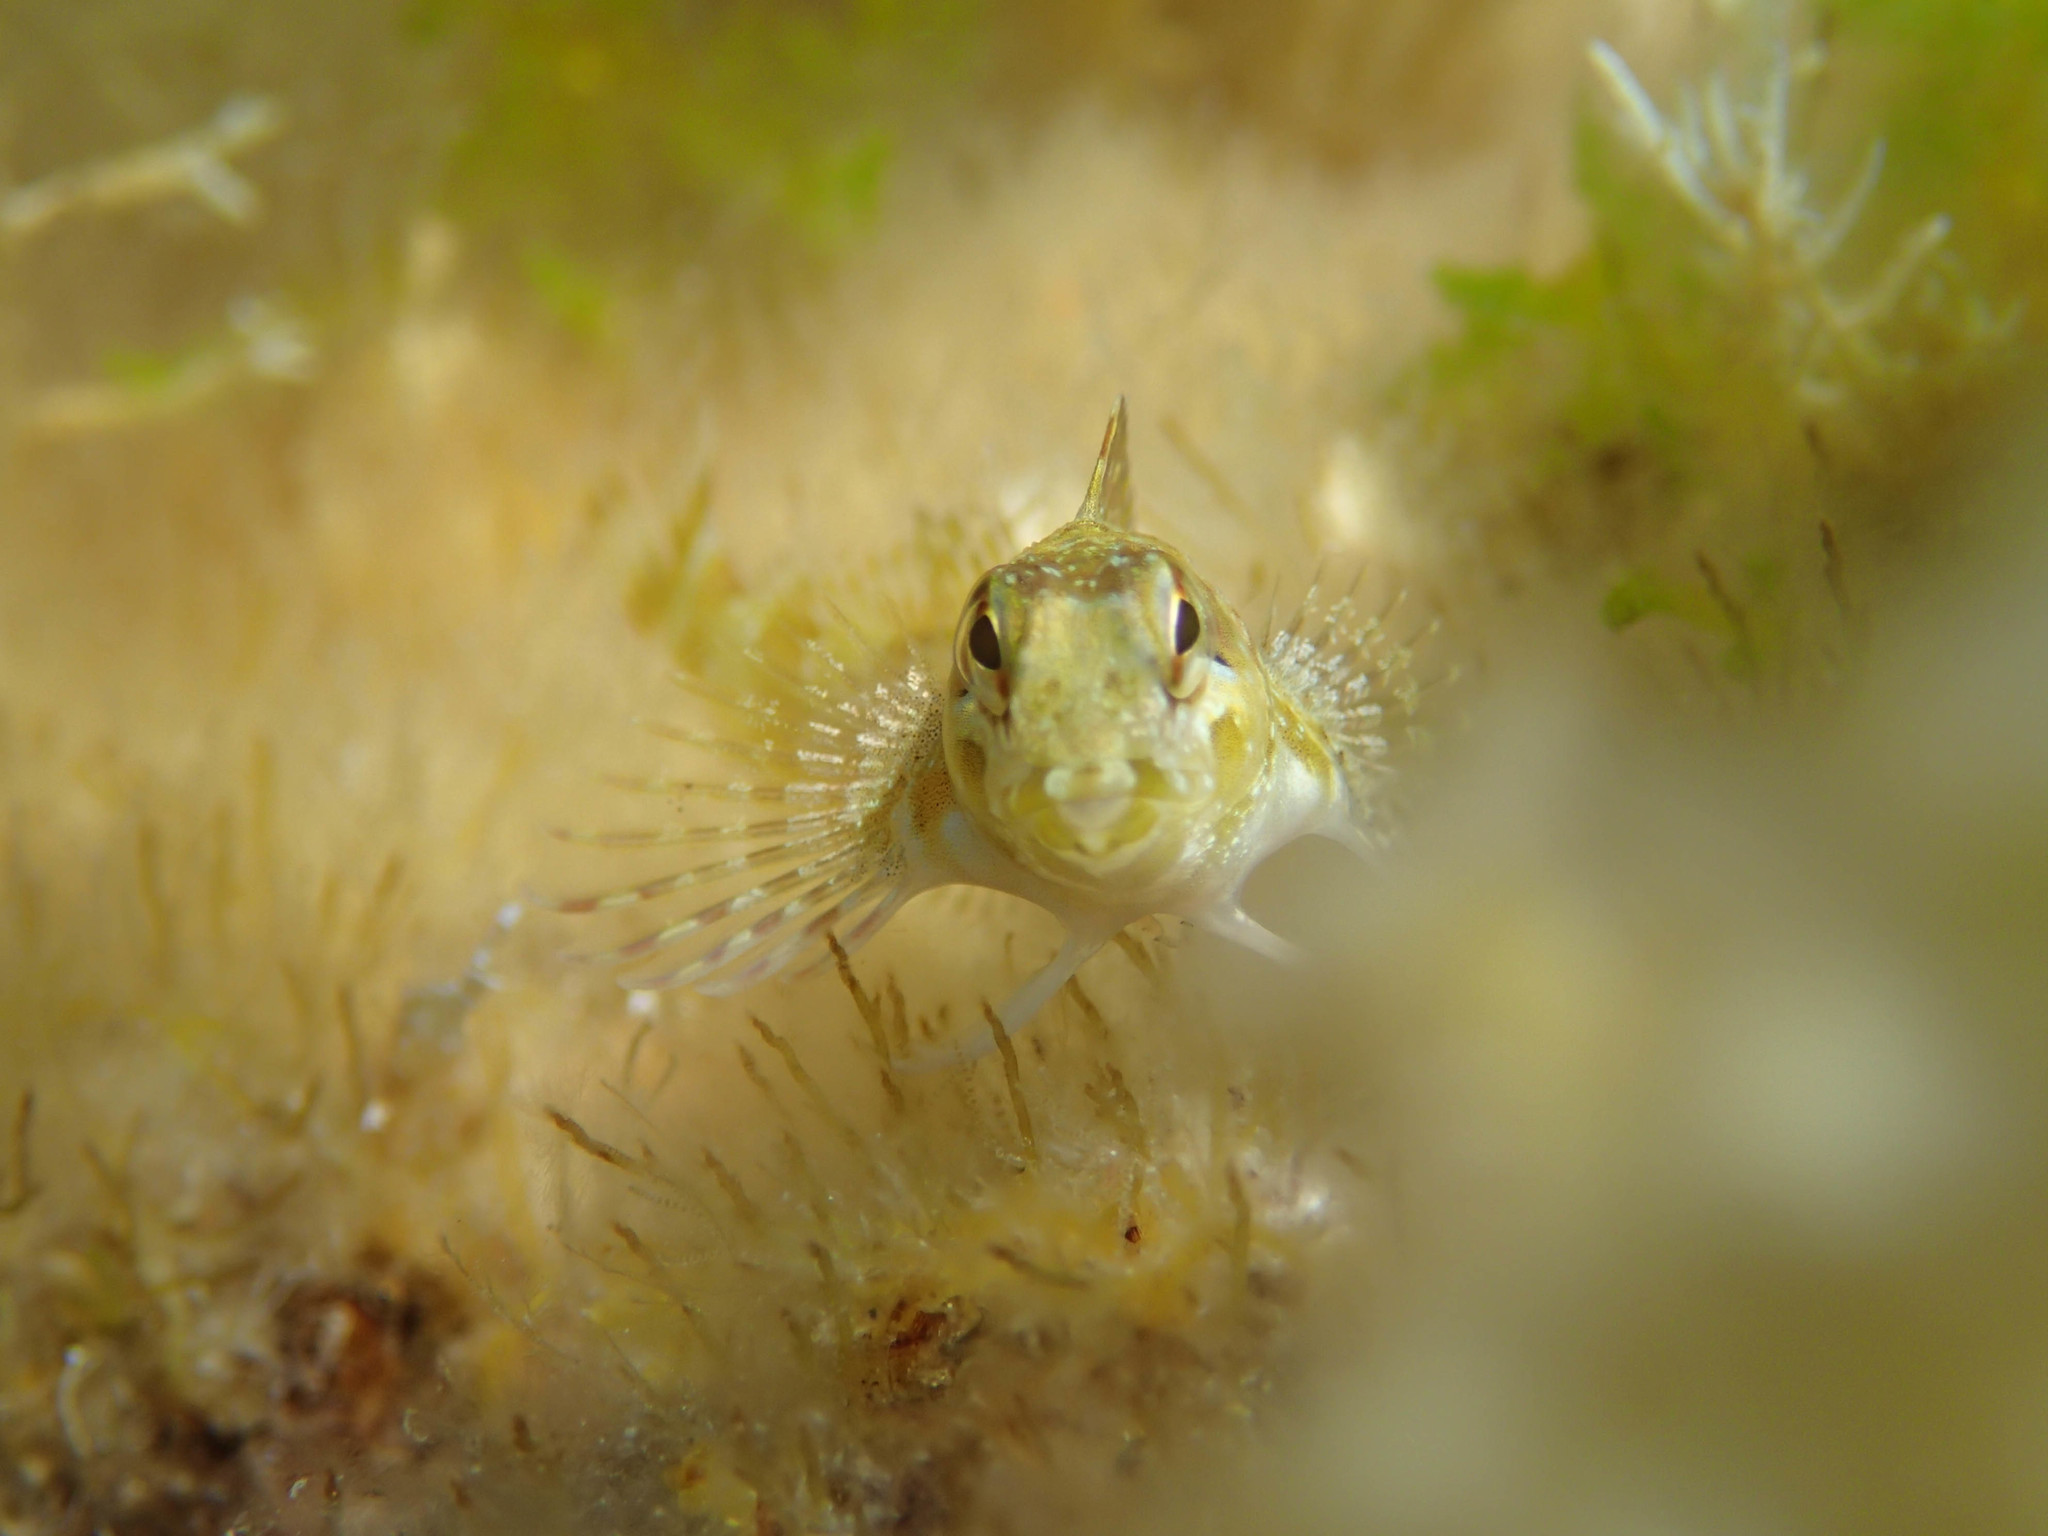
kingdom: Animalia
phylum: Chordata
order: Perciformes
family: Blenniidae
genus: Lipophrys
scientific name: Lipophrys trigloides
